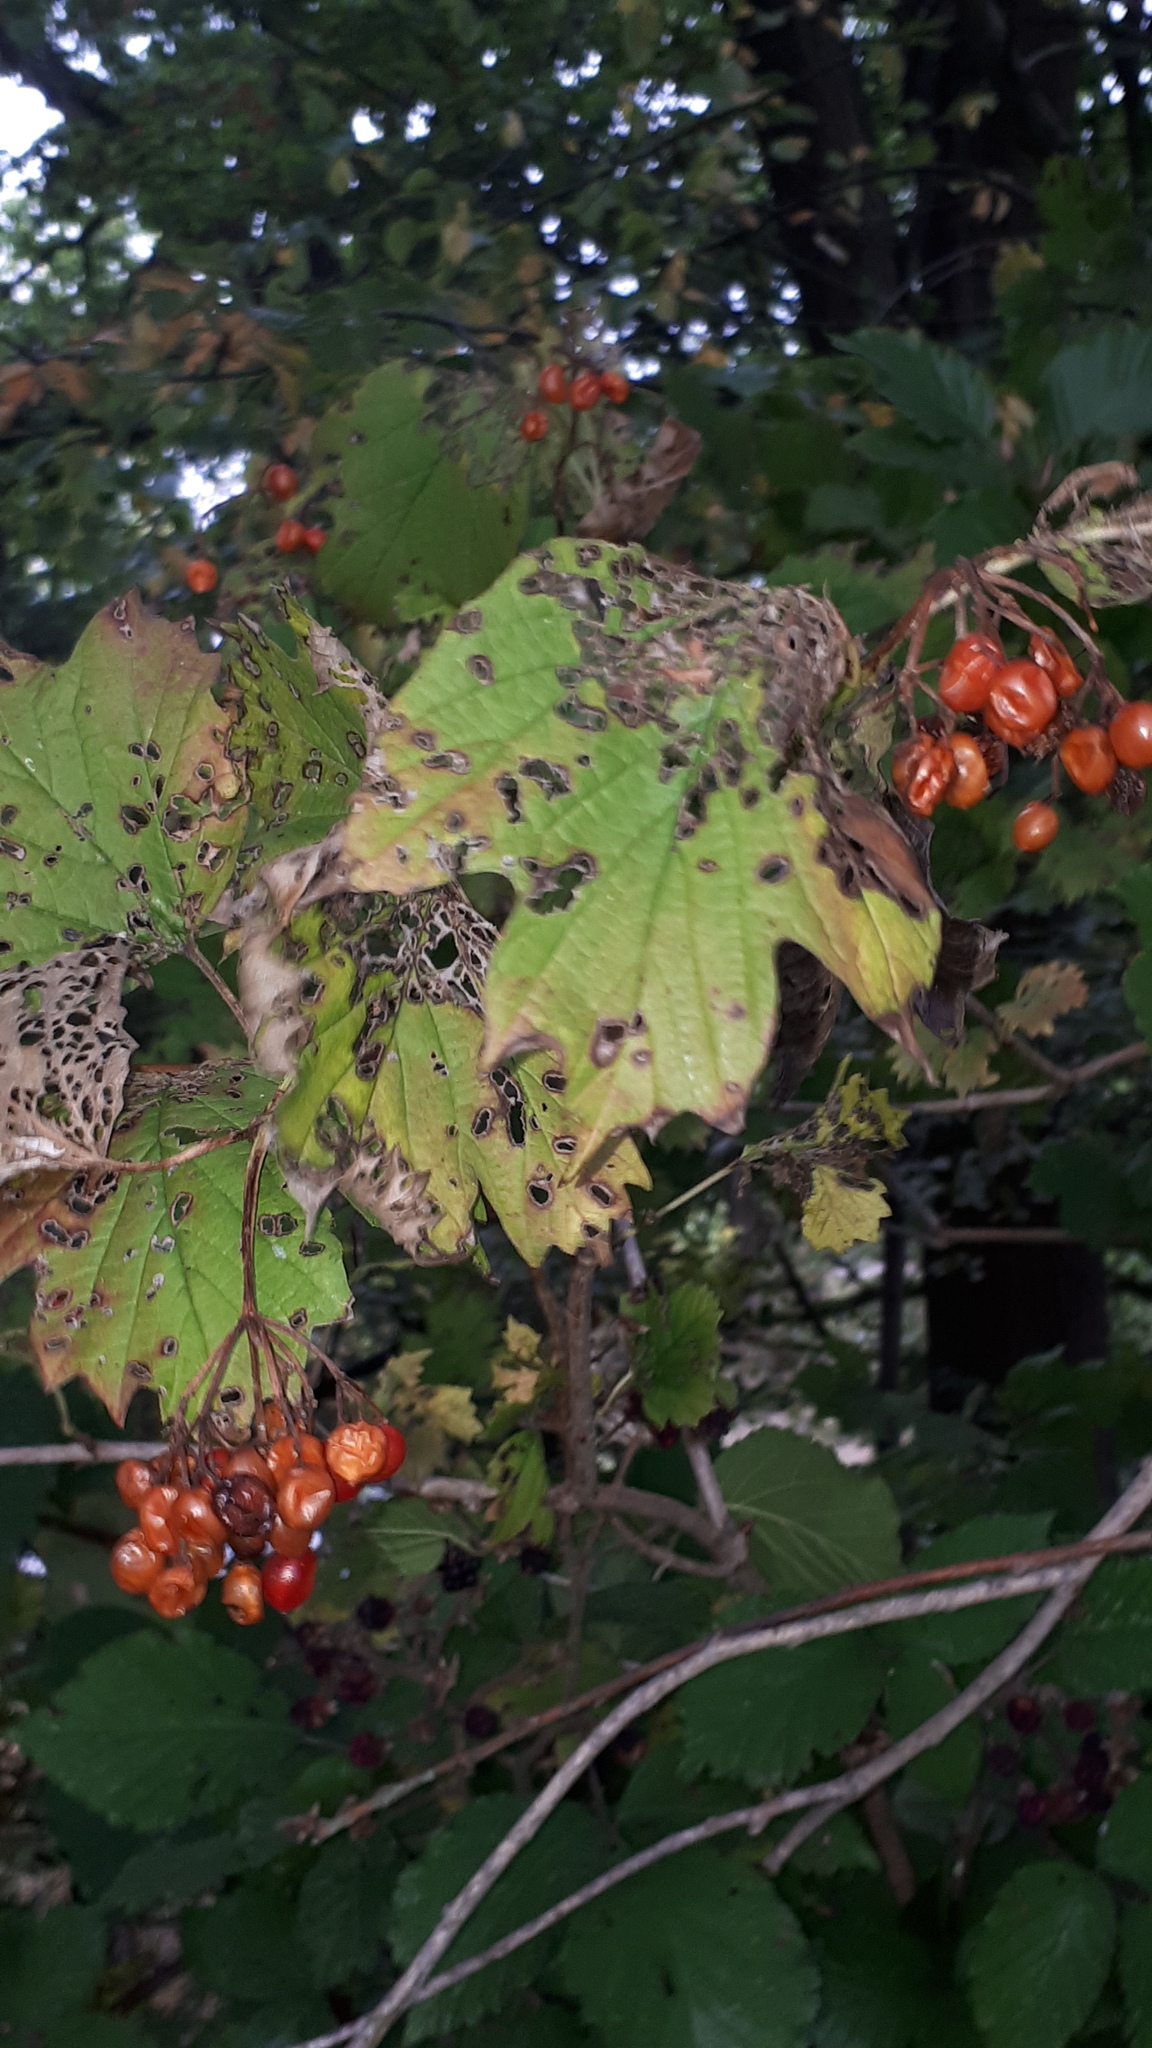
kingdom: Plantae
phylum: Tracheophyta
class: Magnoliopsida
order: Dipsacales
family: Viburnaceae
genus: Viburnum
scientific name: Viburnum opulus
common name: Guelder-rose
